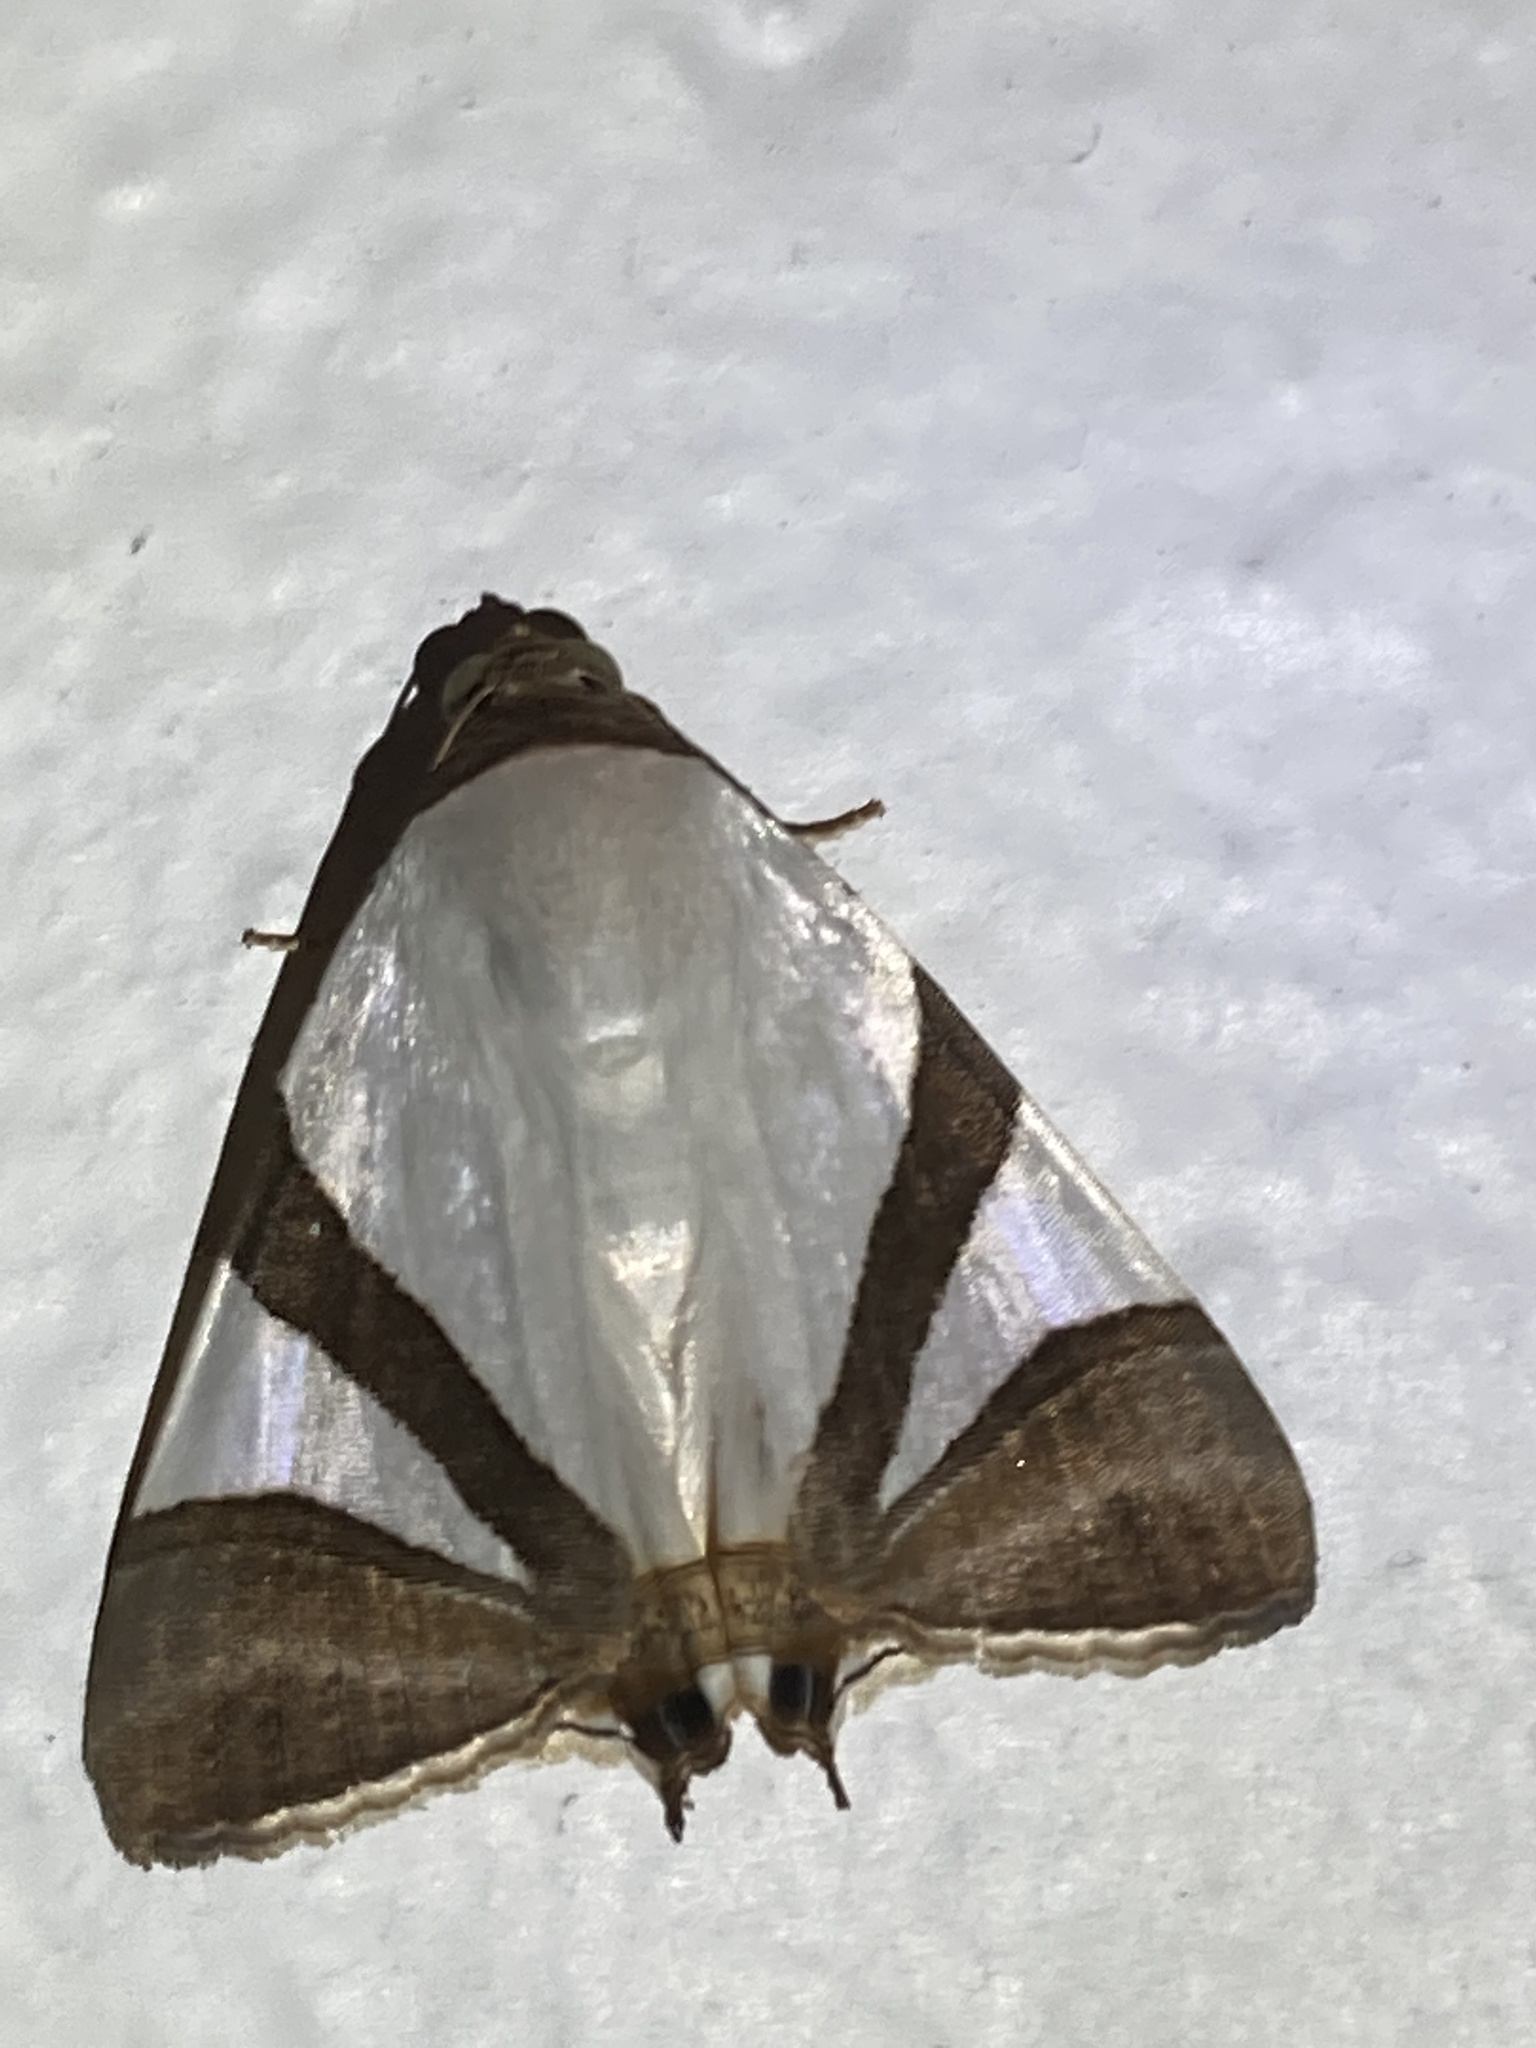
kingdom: Animalia
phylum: Arthropoda
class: Insecta
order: Lepidoptera
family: Erebidae
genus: Eulepidotis
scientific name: Eulepidotis rectimargo
